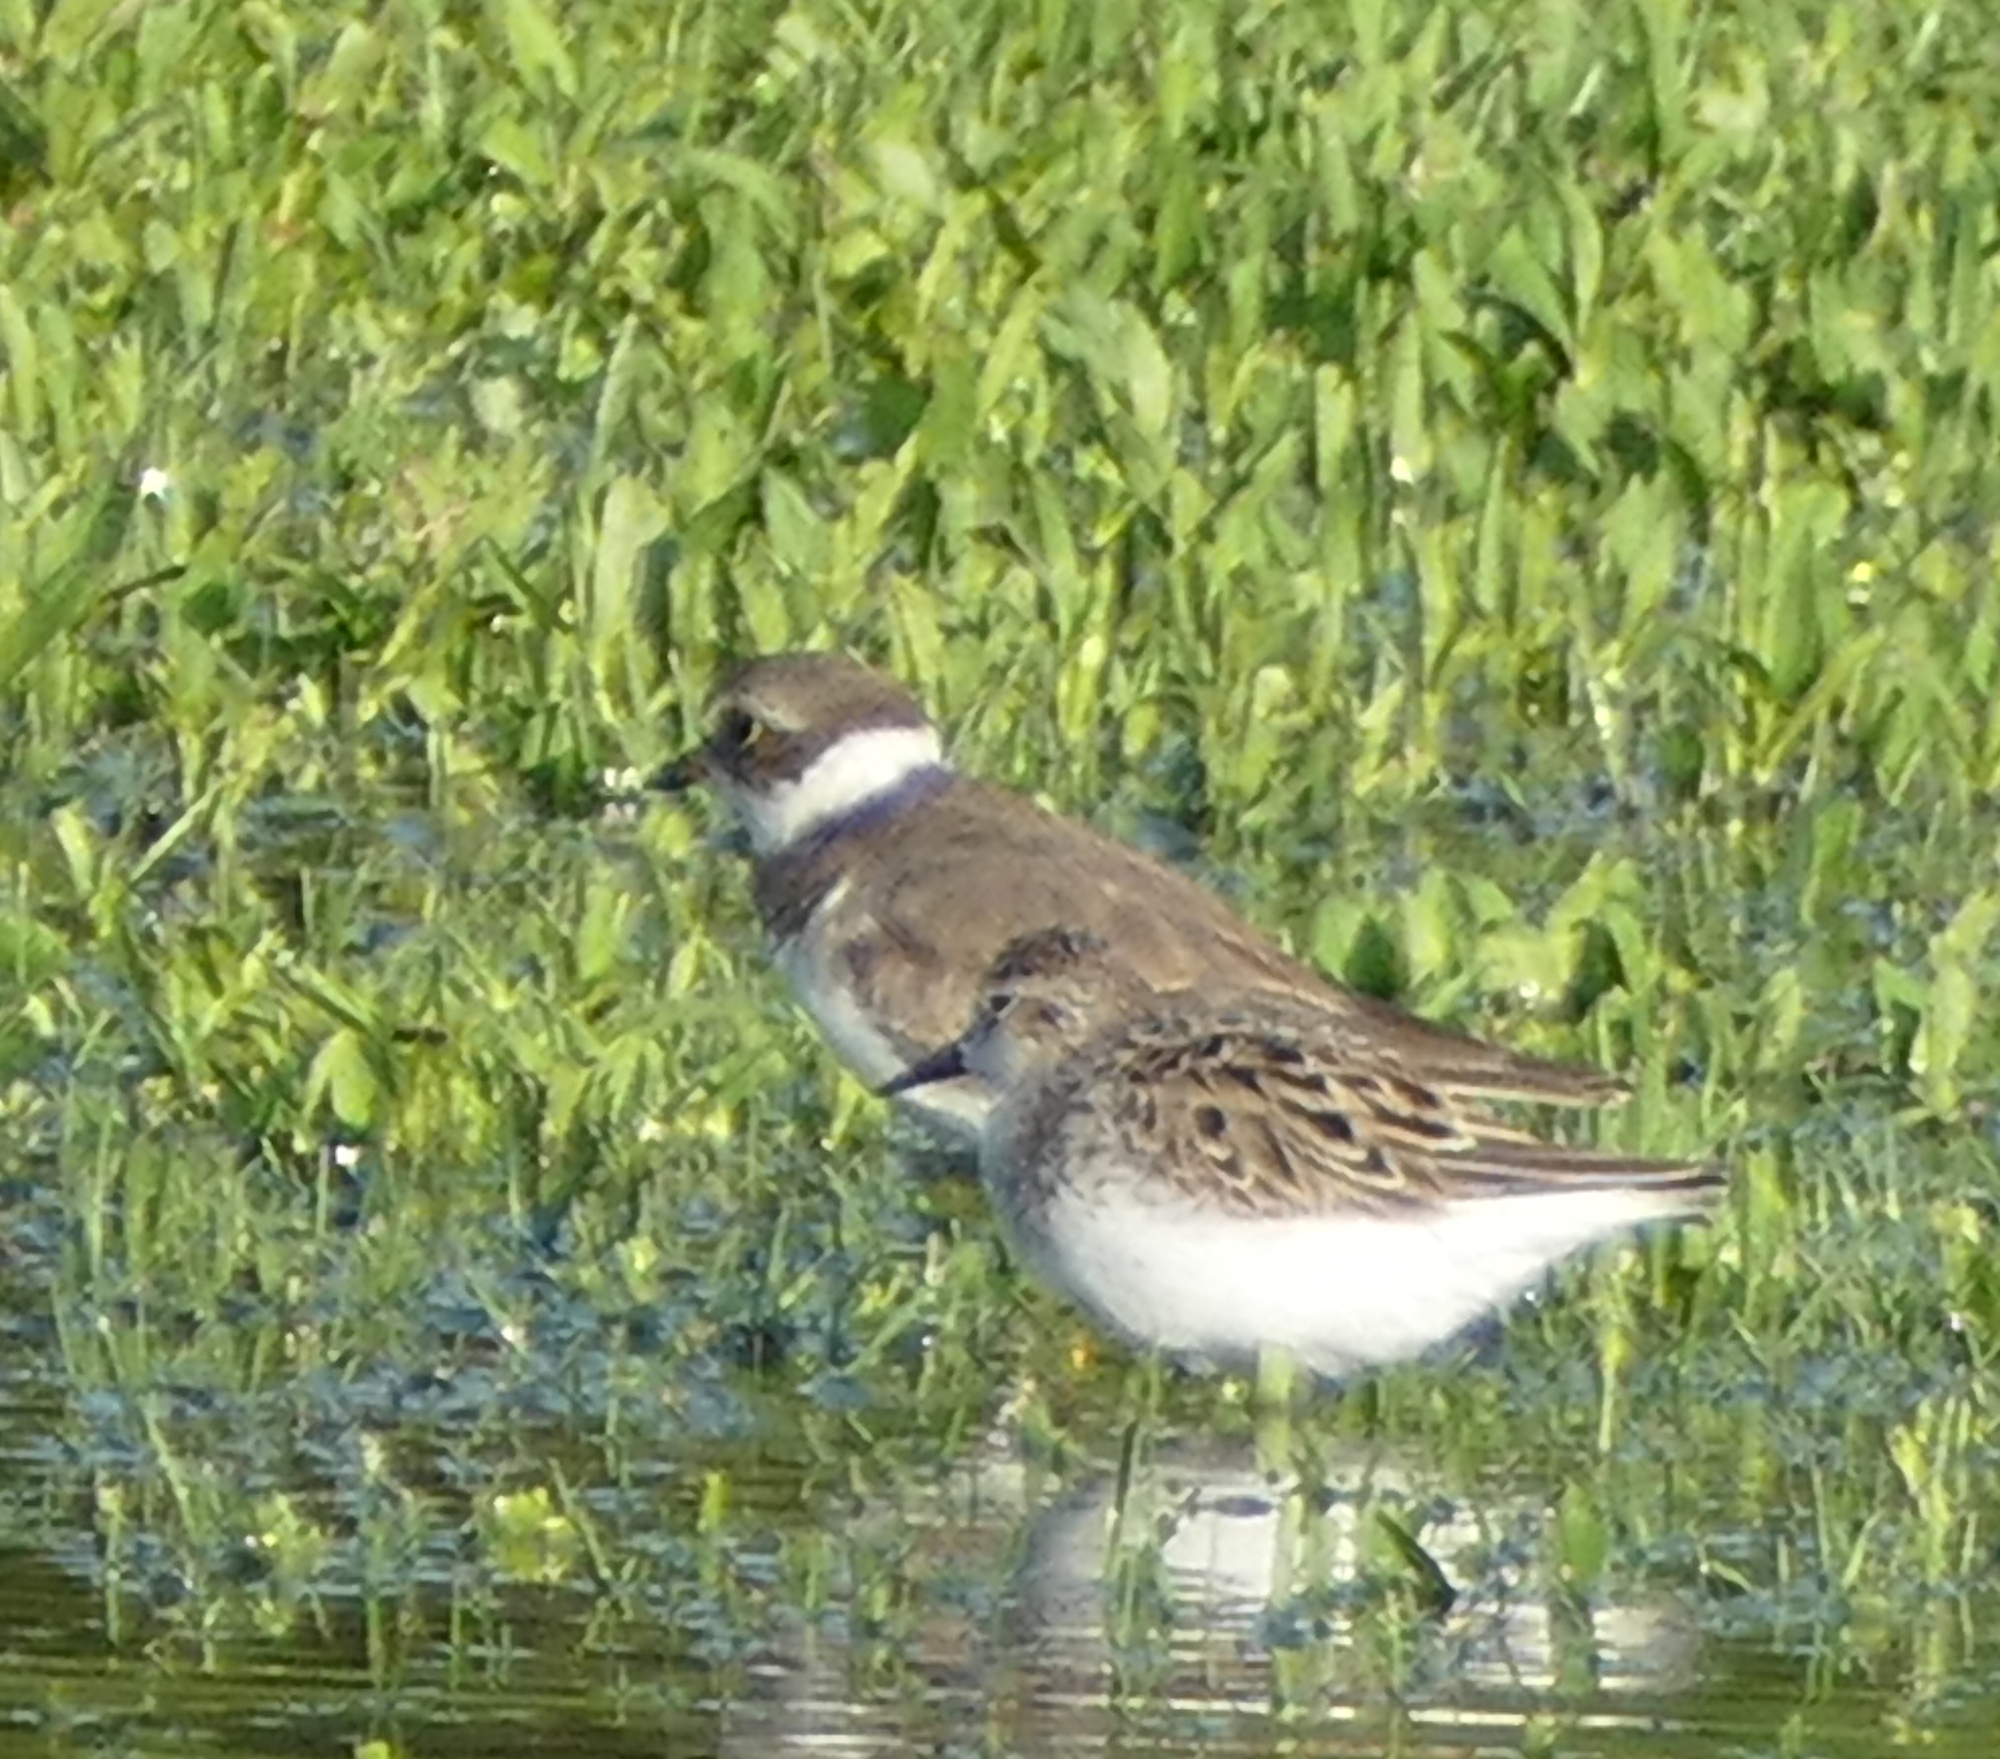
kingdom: Animalia
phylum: Chordata
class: Aves
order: Charadriiformes
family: Charadriidae
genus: Charadrius
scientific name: Charadrius semipalmatus
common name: Semipalmated plover
